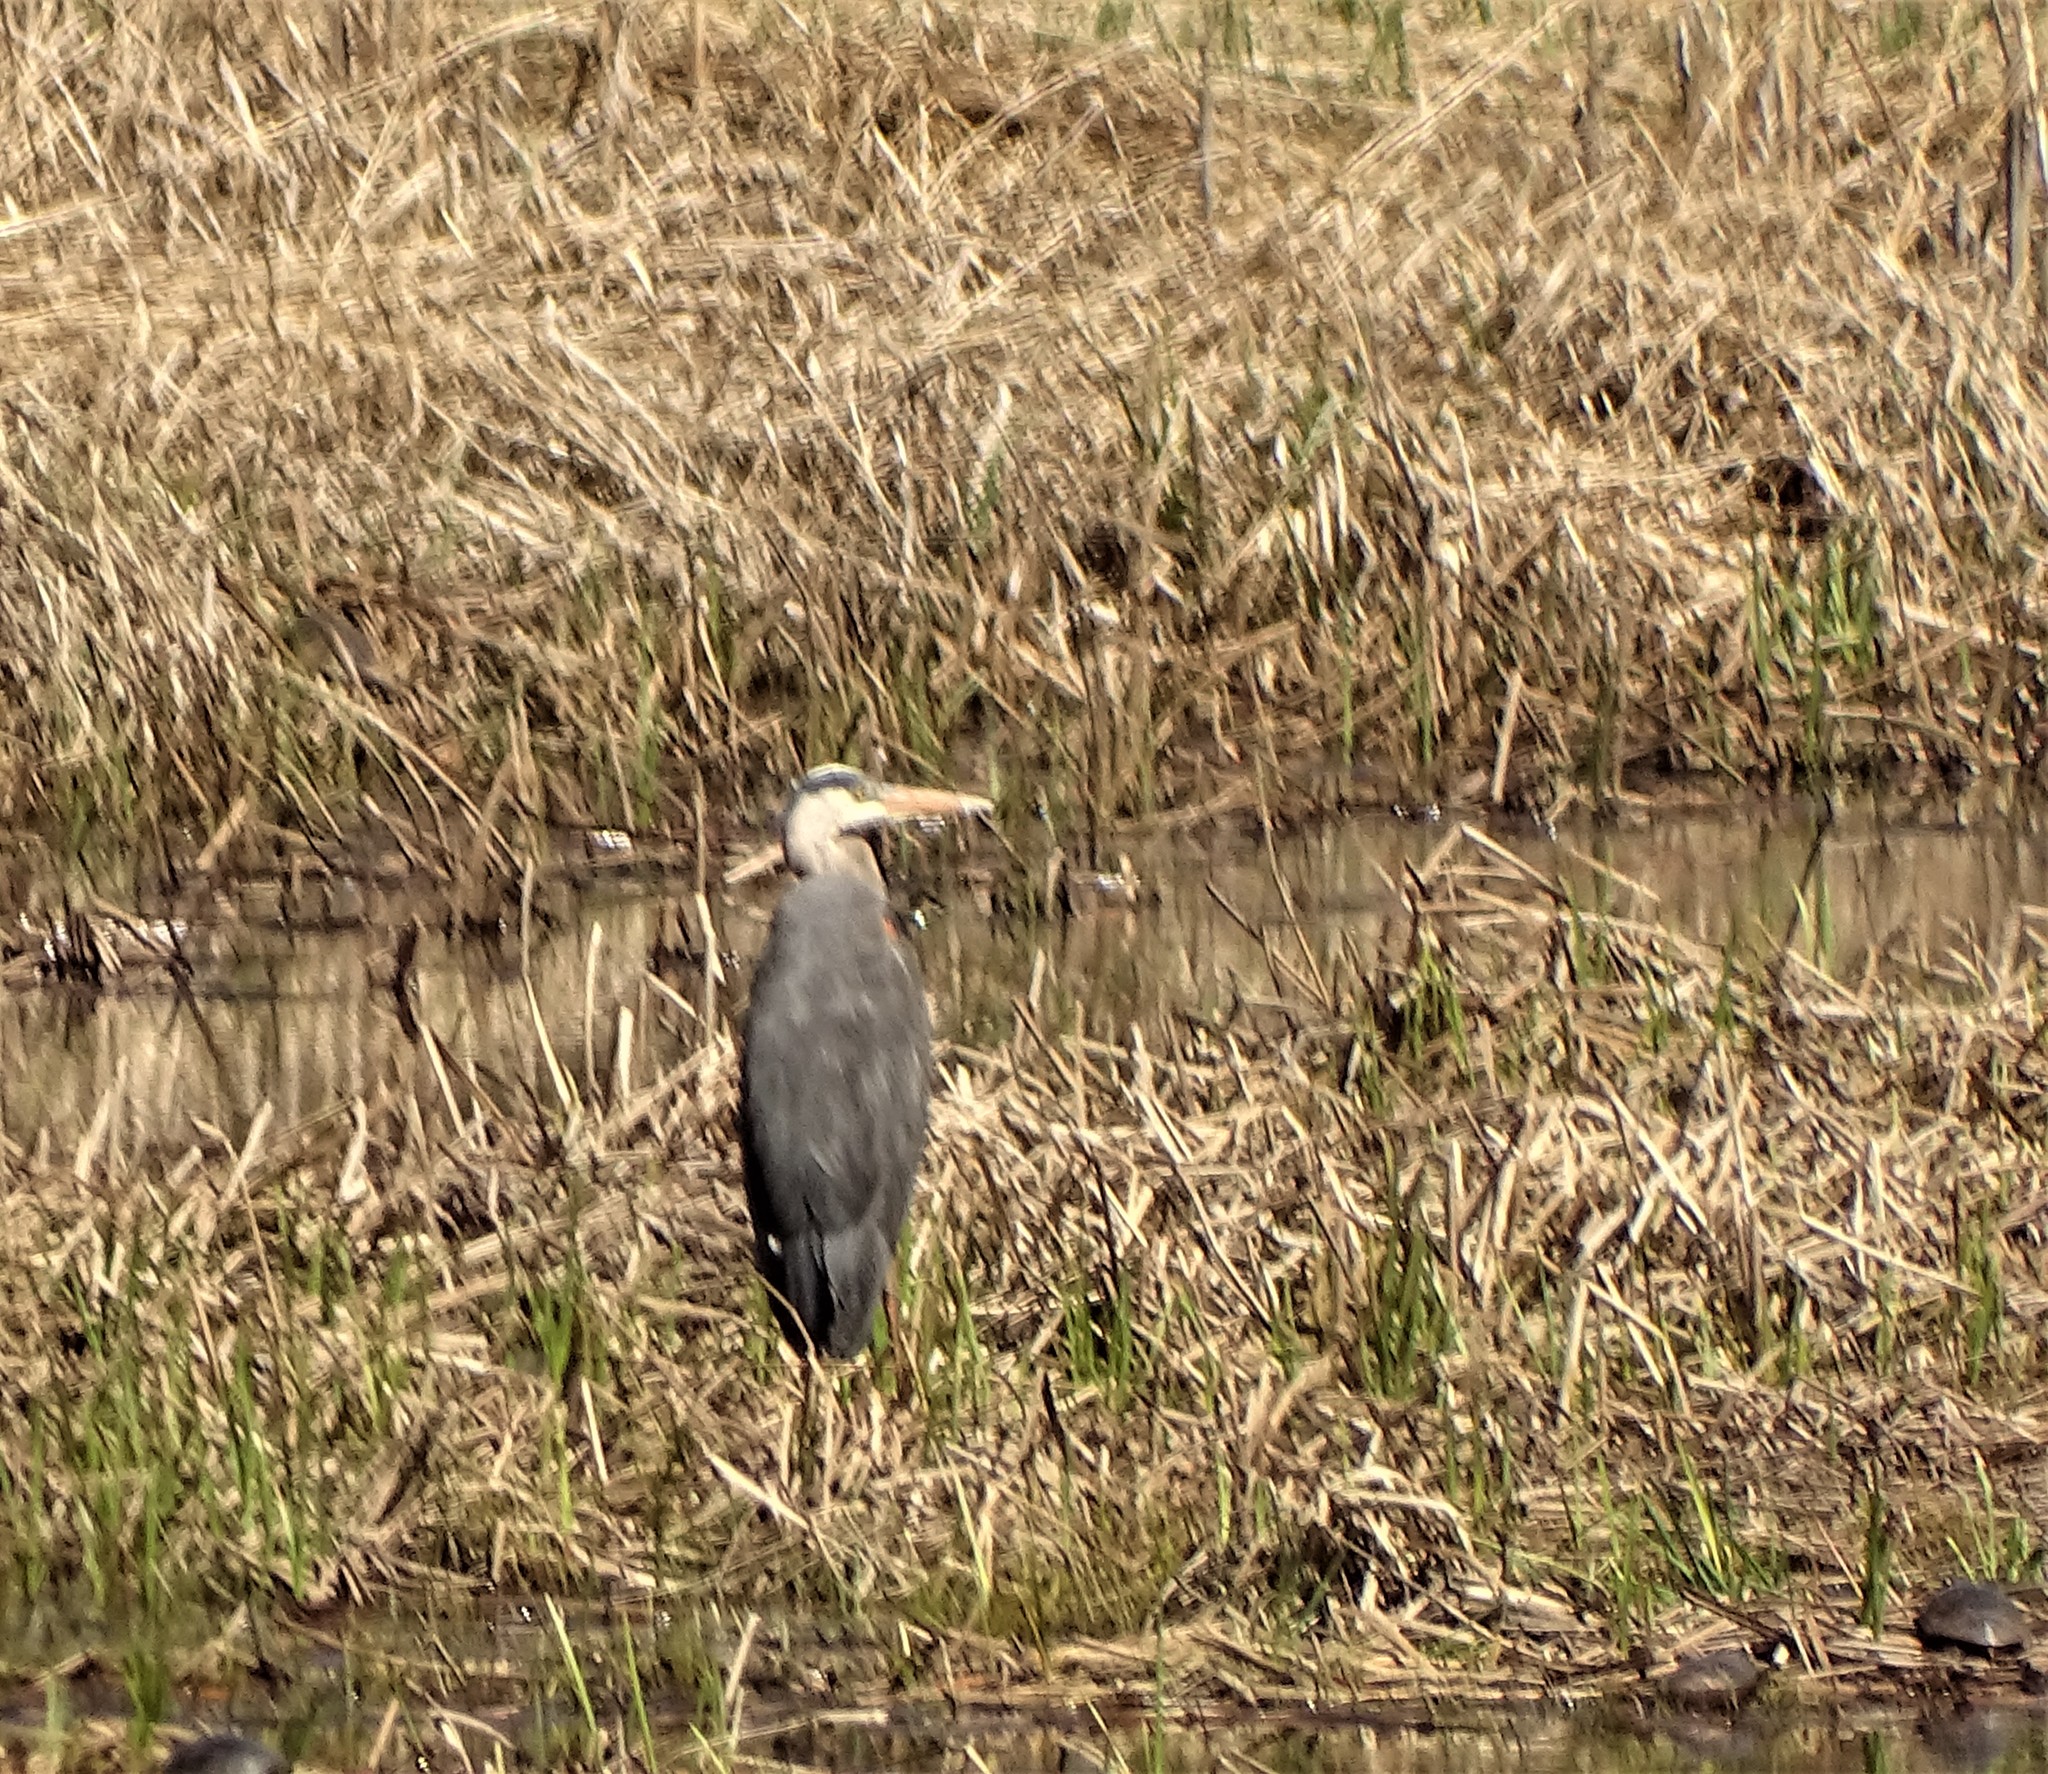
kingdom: Animalia
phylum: Chordata
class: Aves
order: Pelecaniformes
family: Ardeidae
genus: Ardea
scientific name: Ardea herodias
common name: Great blue heron
